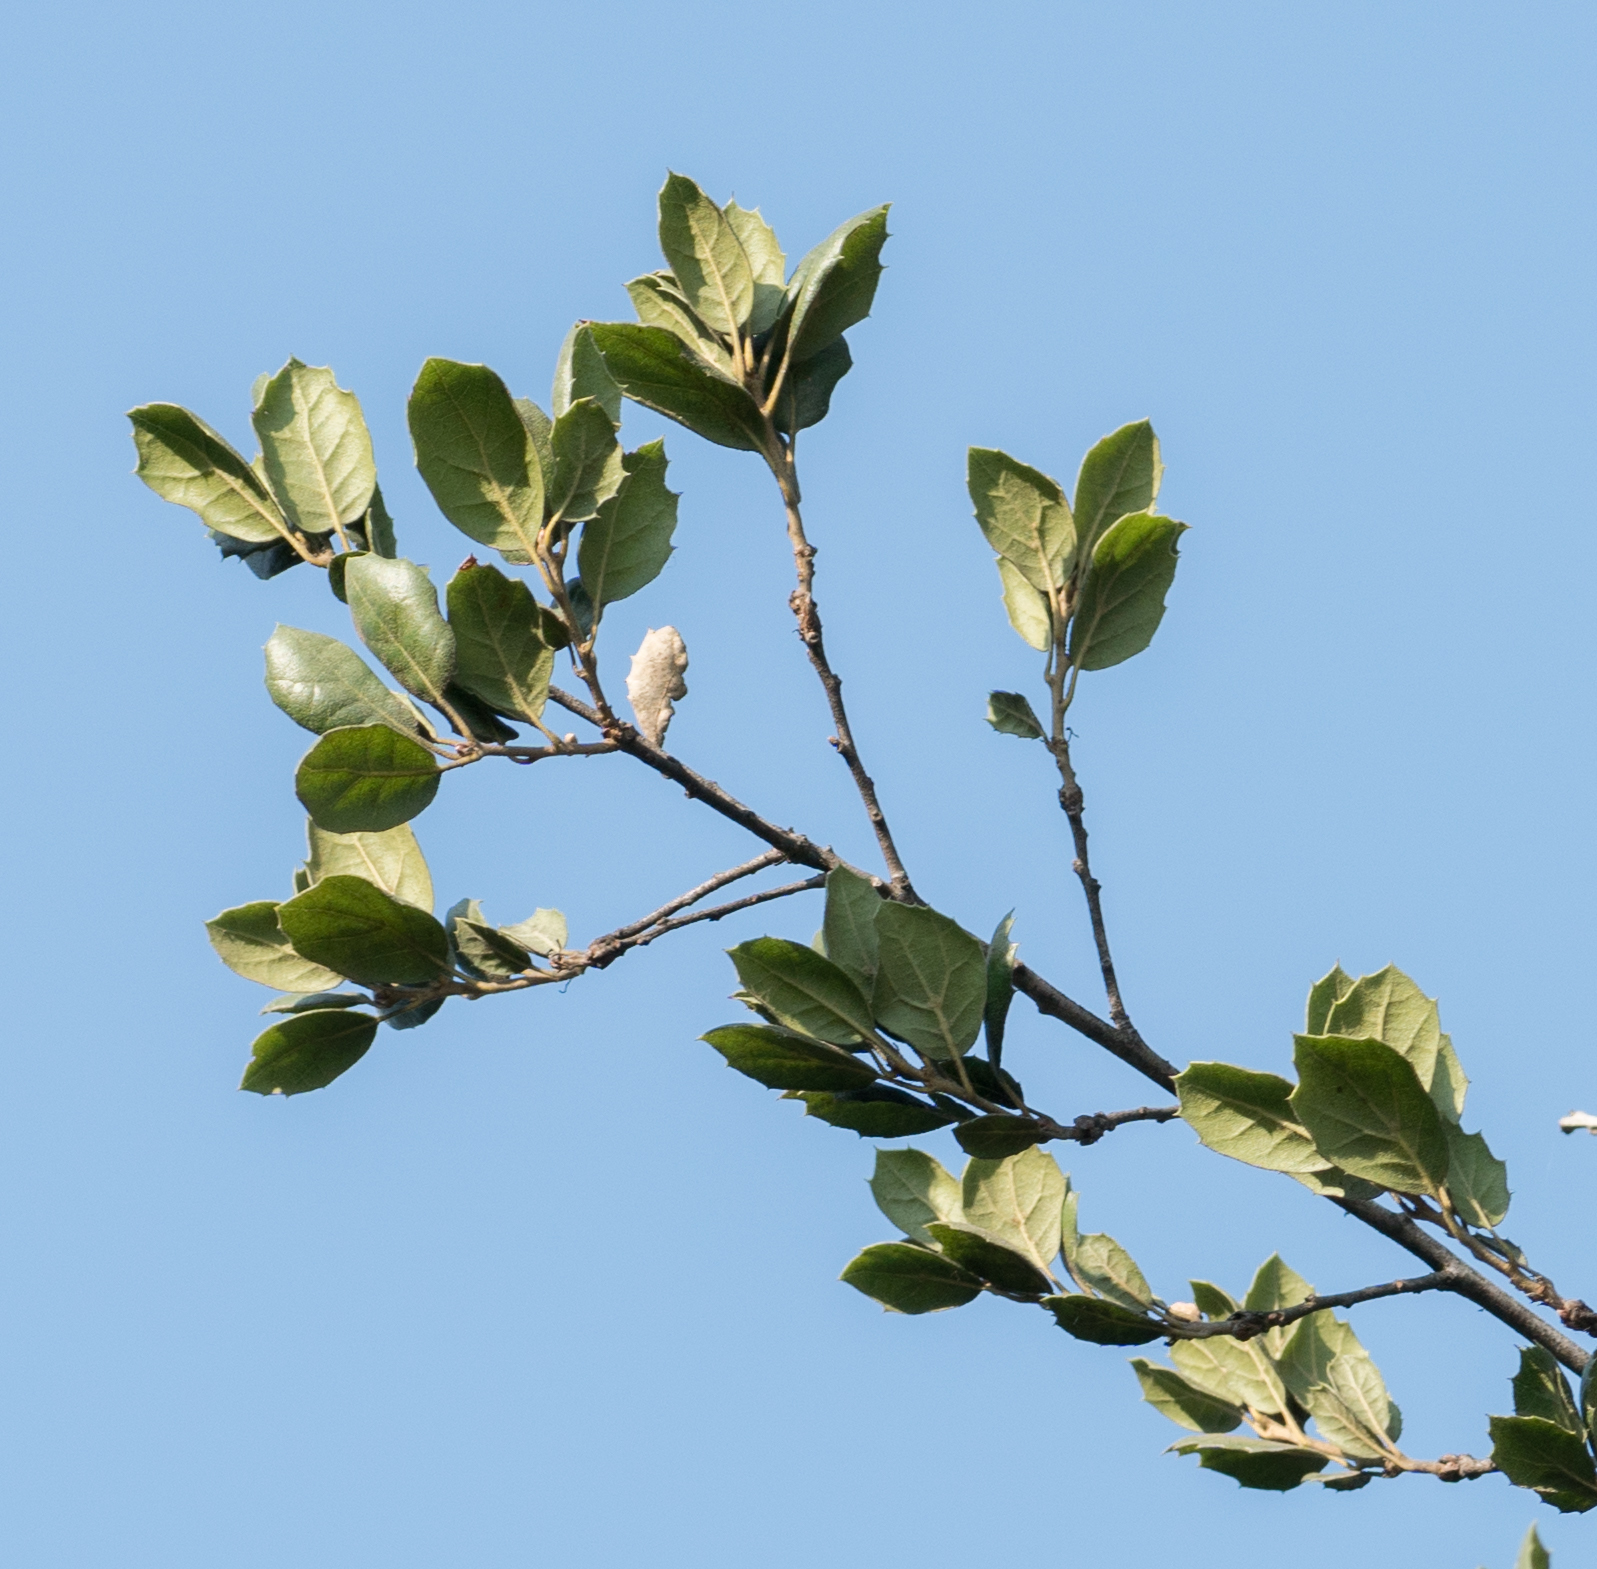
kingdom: Plantae
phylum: Tracheophyta
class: Magnoliopsida
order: Fagales
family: Fagaceae
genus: Quercus
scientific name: Quercus agrifolia
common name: California live oak
